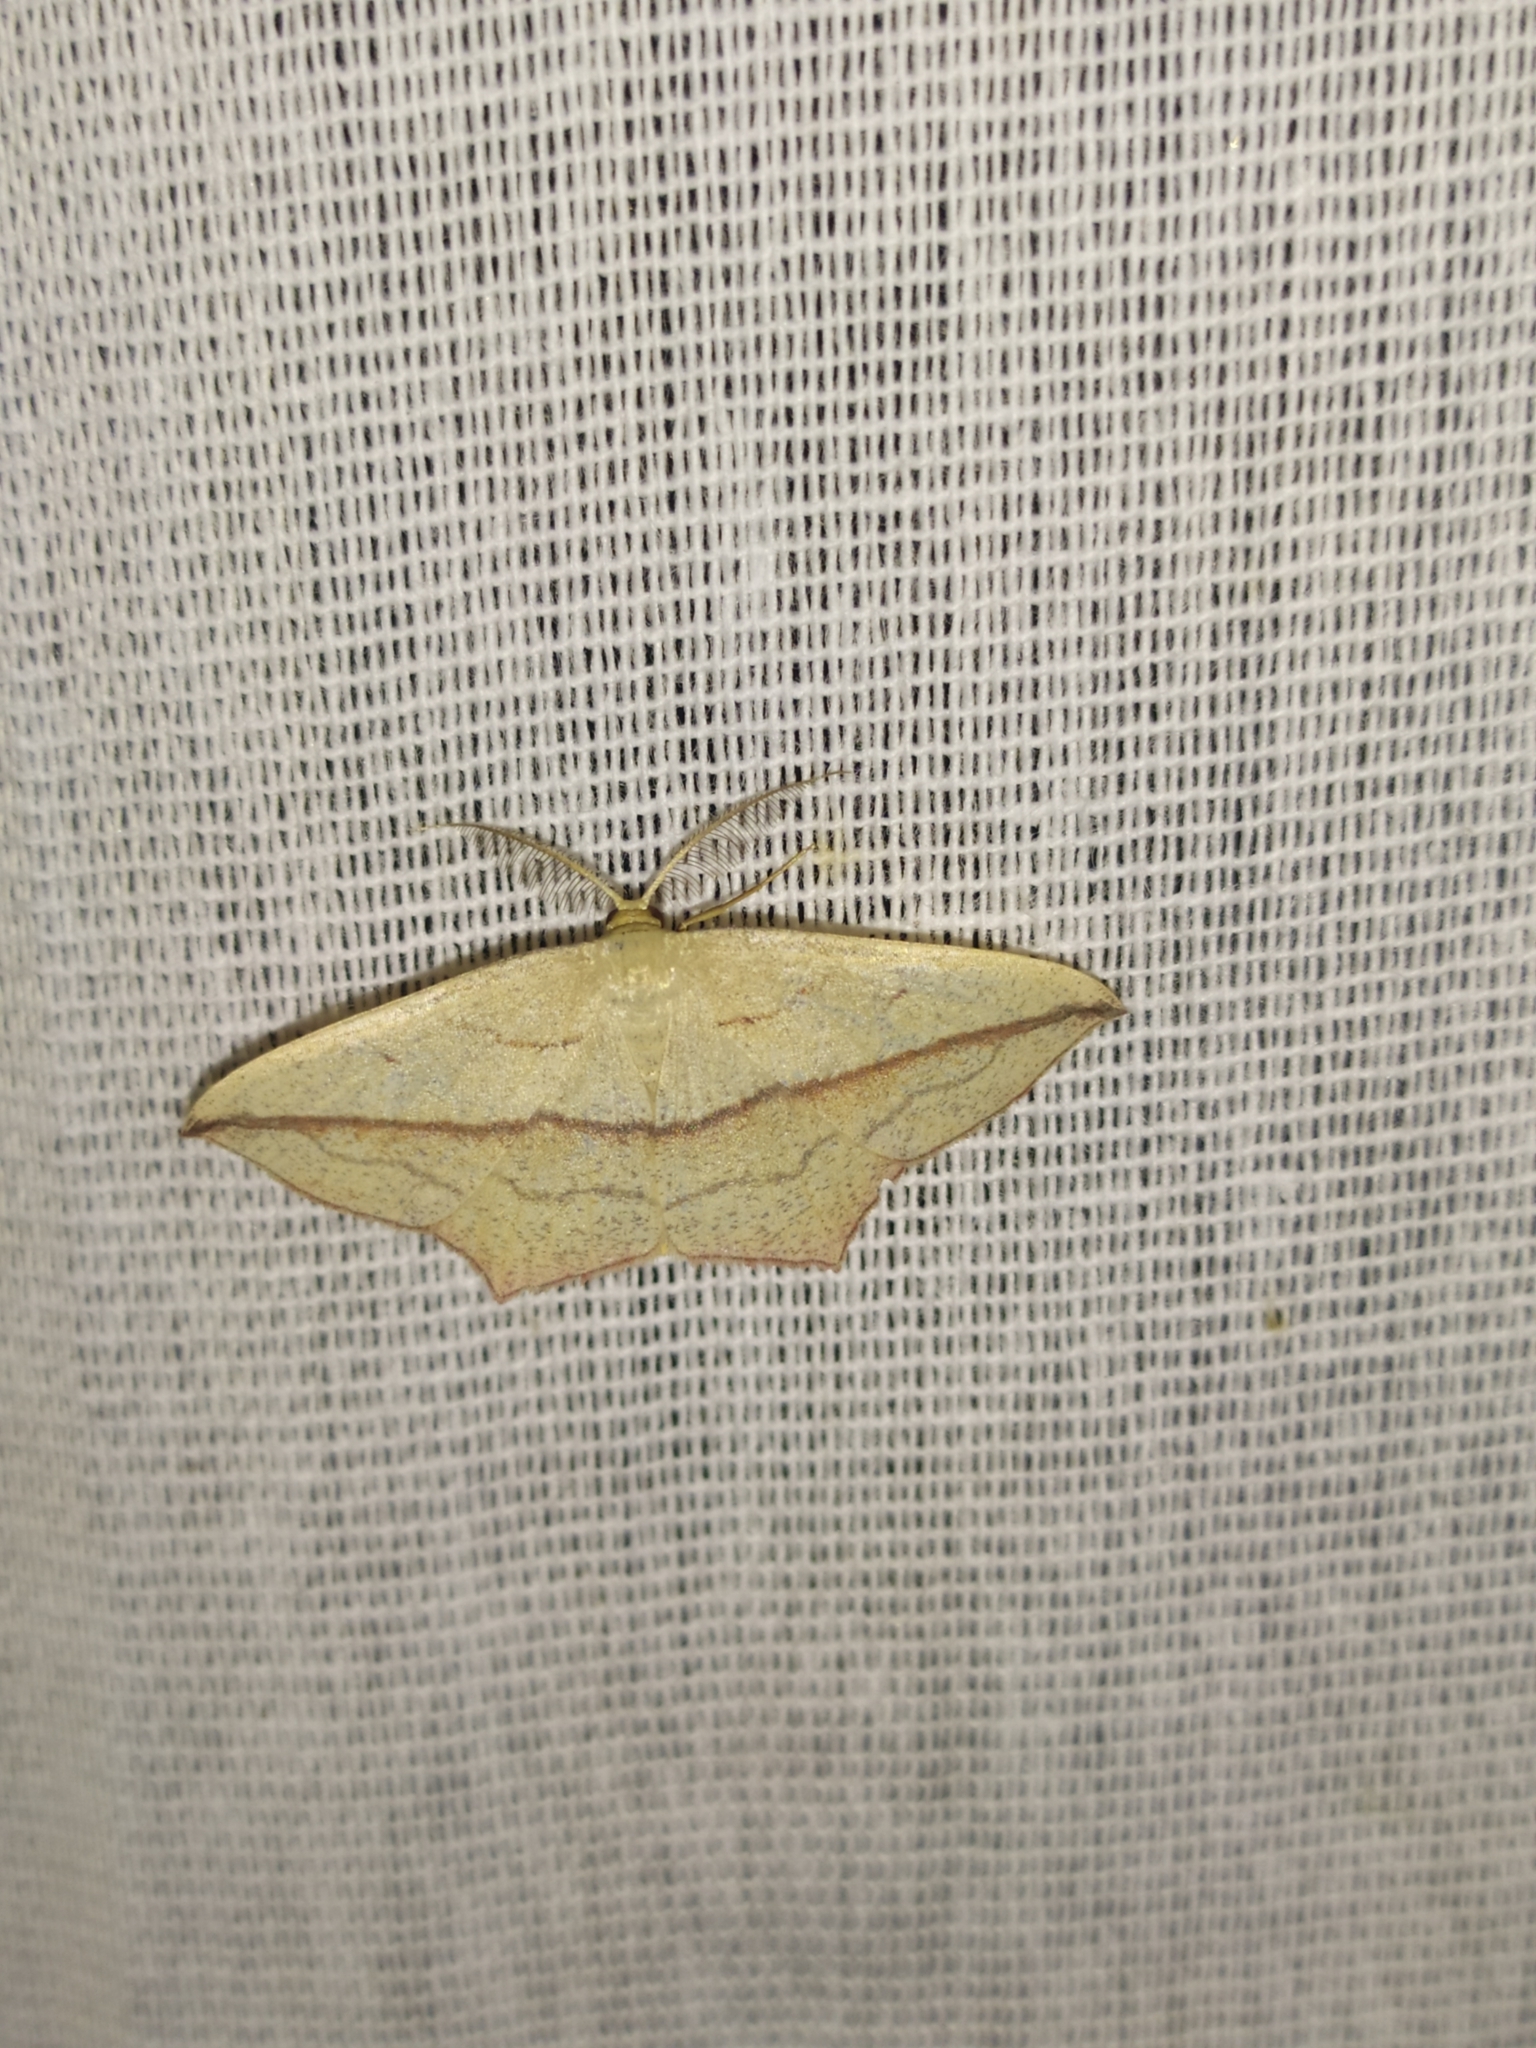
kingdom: Animalia
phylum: Arthropoda
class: Insecta
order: Lepidoptera
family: Geometridae
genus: Timandra
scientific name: Timandra comae
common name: Blood-vein
